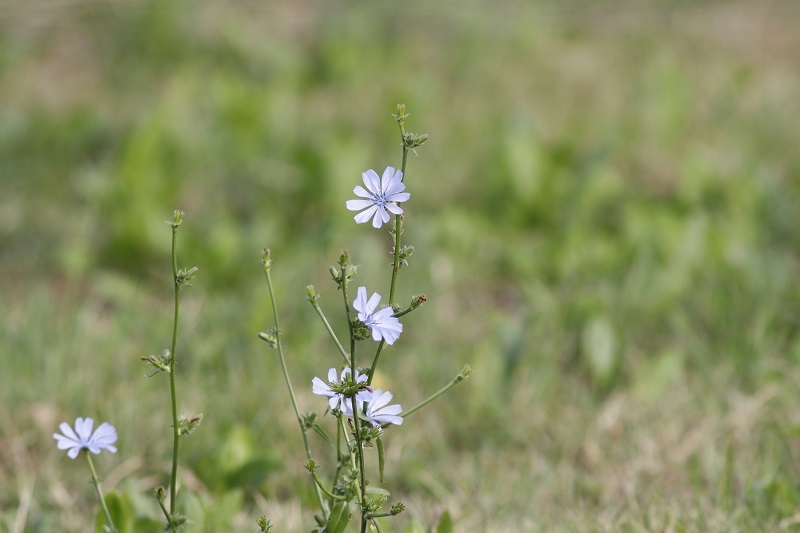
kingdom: Plantae
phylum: Tracheophyta
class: Magnoliopsida
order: Asterales
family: Asteraceae
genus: Cichorium
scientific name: Cichorium intybus
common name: Chicory
